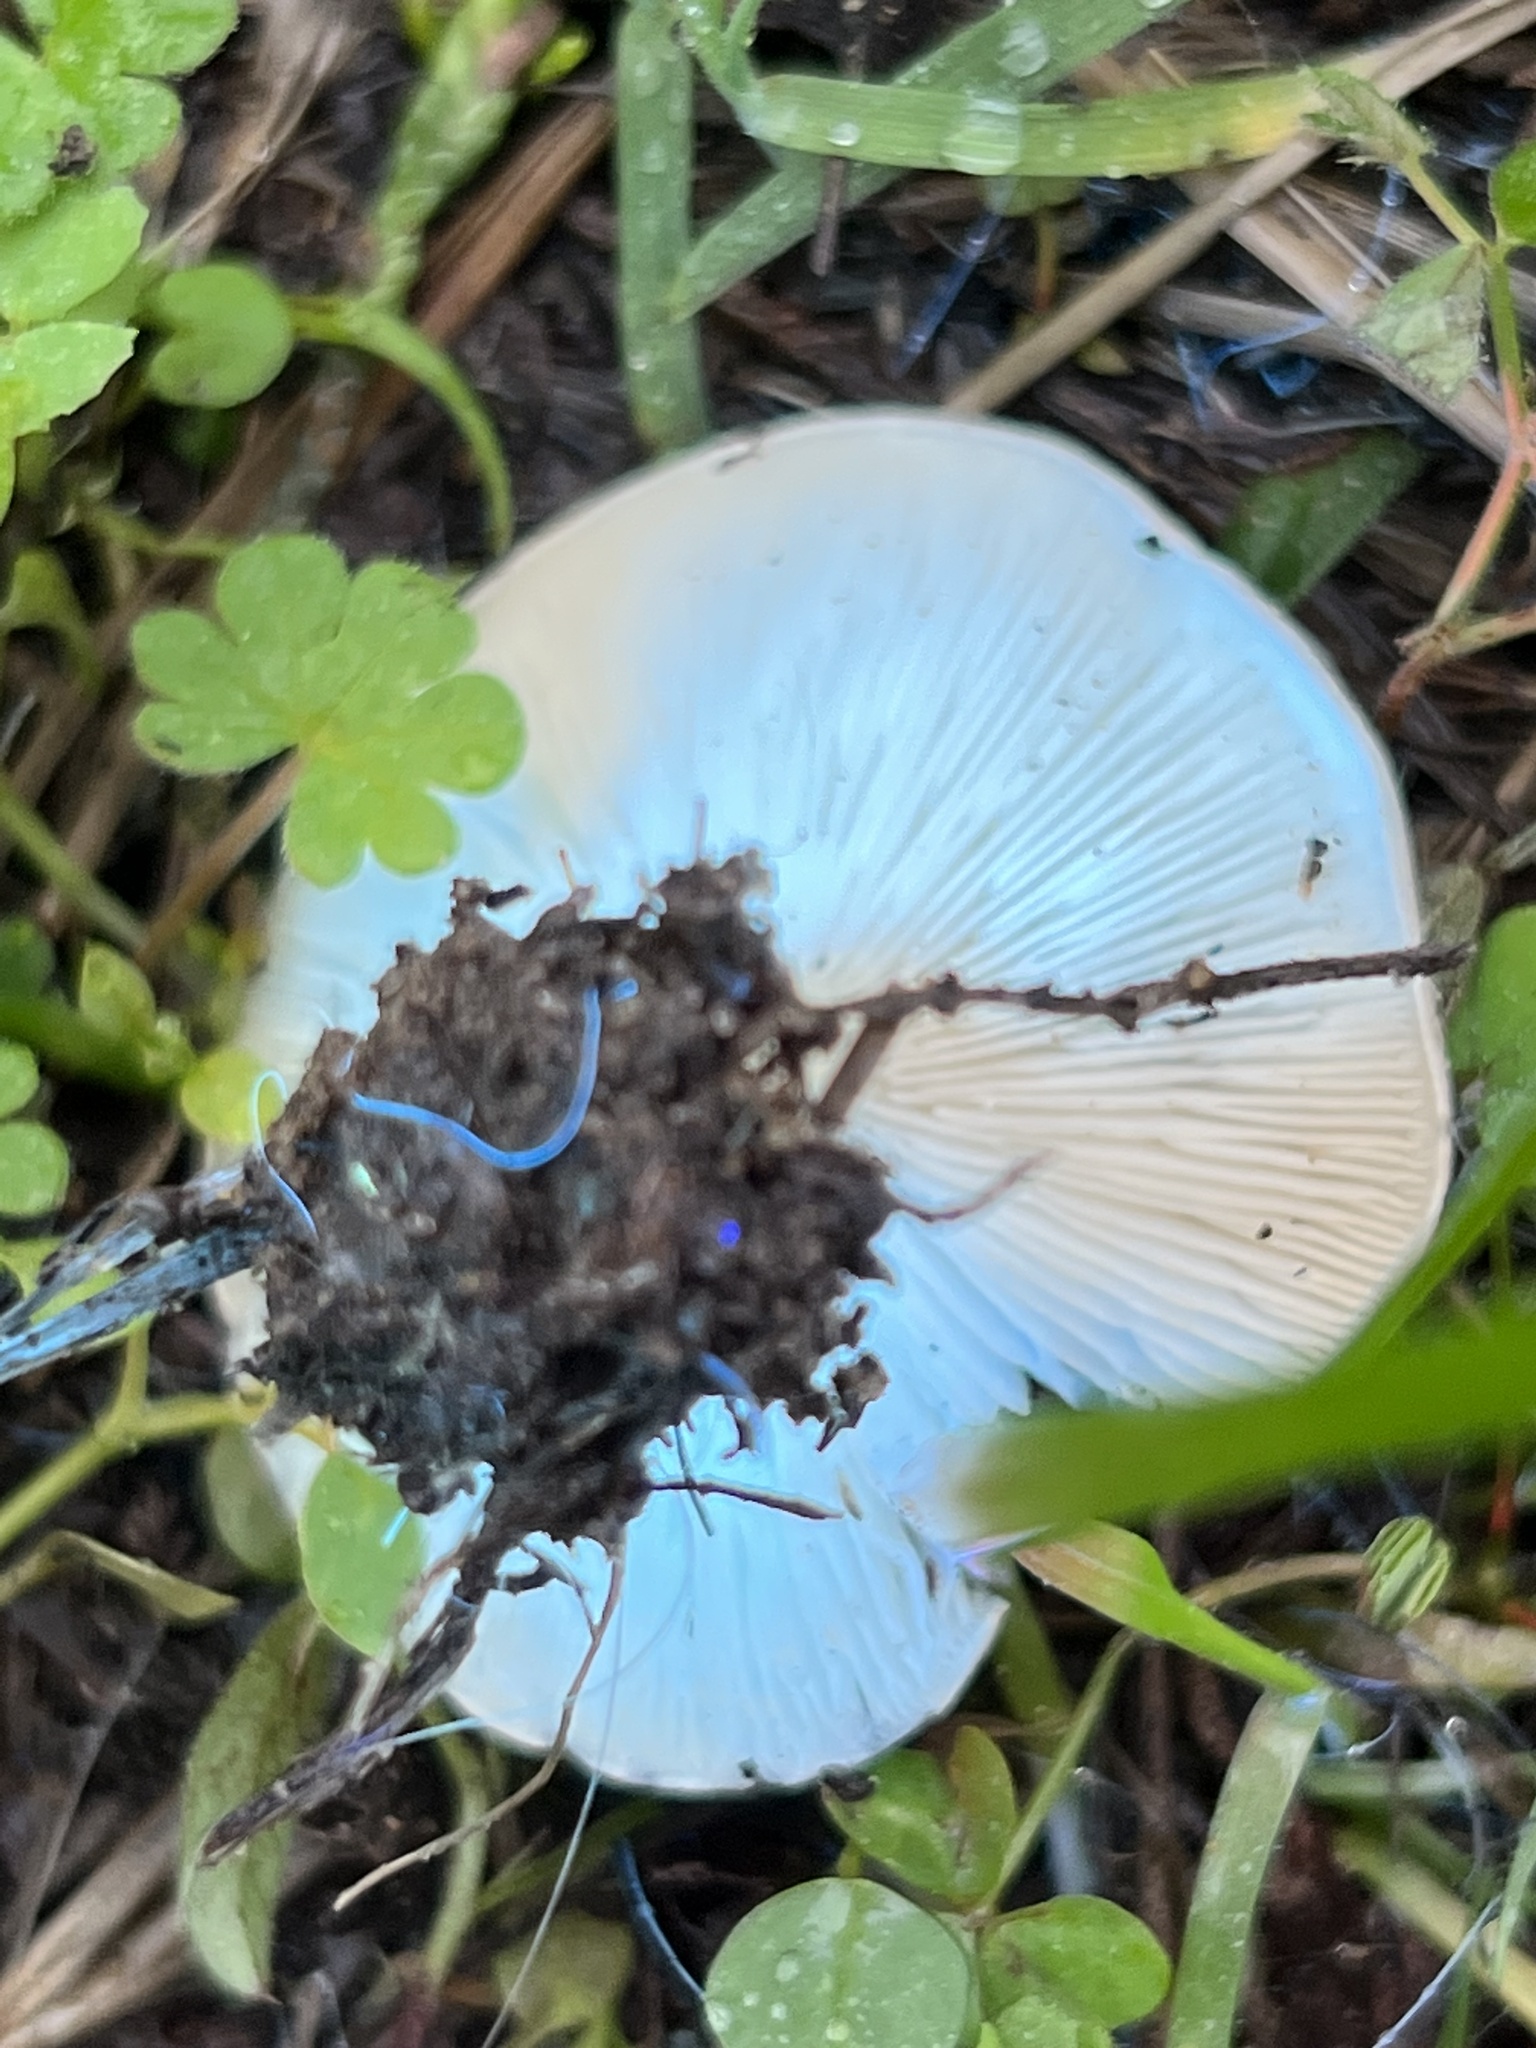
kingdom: Fungi
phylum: Basidiomycota
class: Agaricomycetes
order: Agaricales
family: Tricholomataceae
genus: Tricholoma
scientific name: Tricholoma terreum
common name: Grey knight
